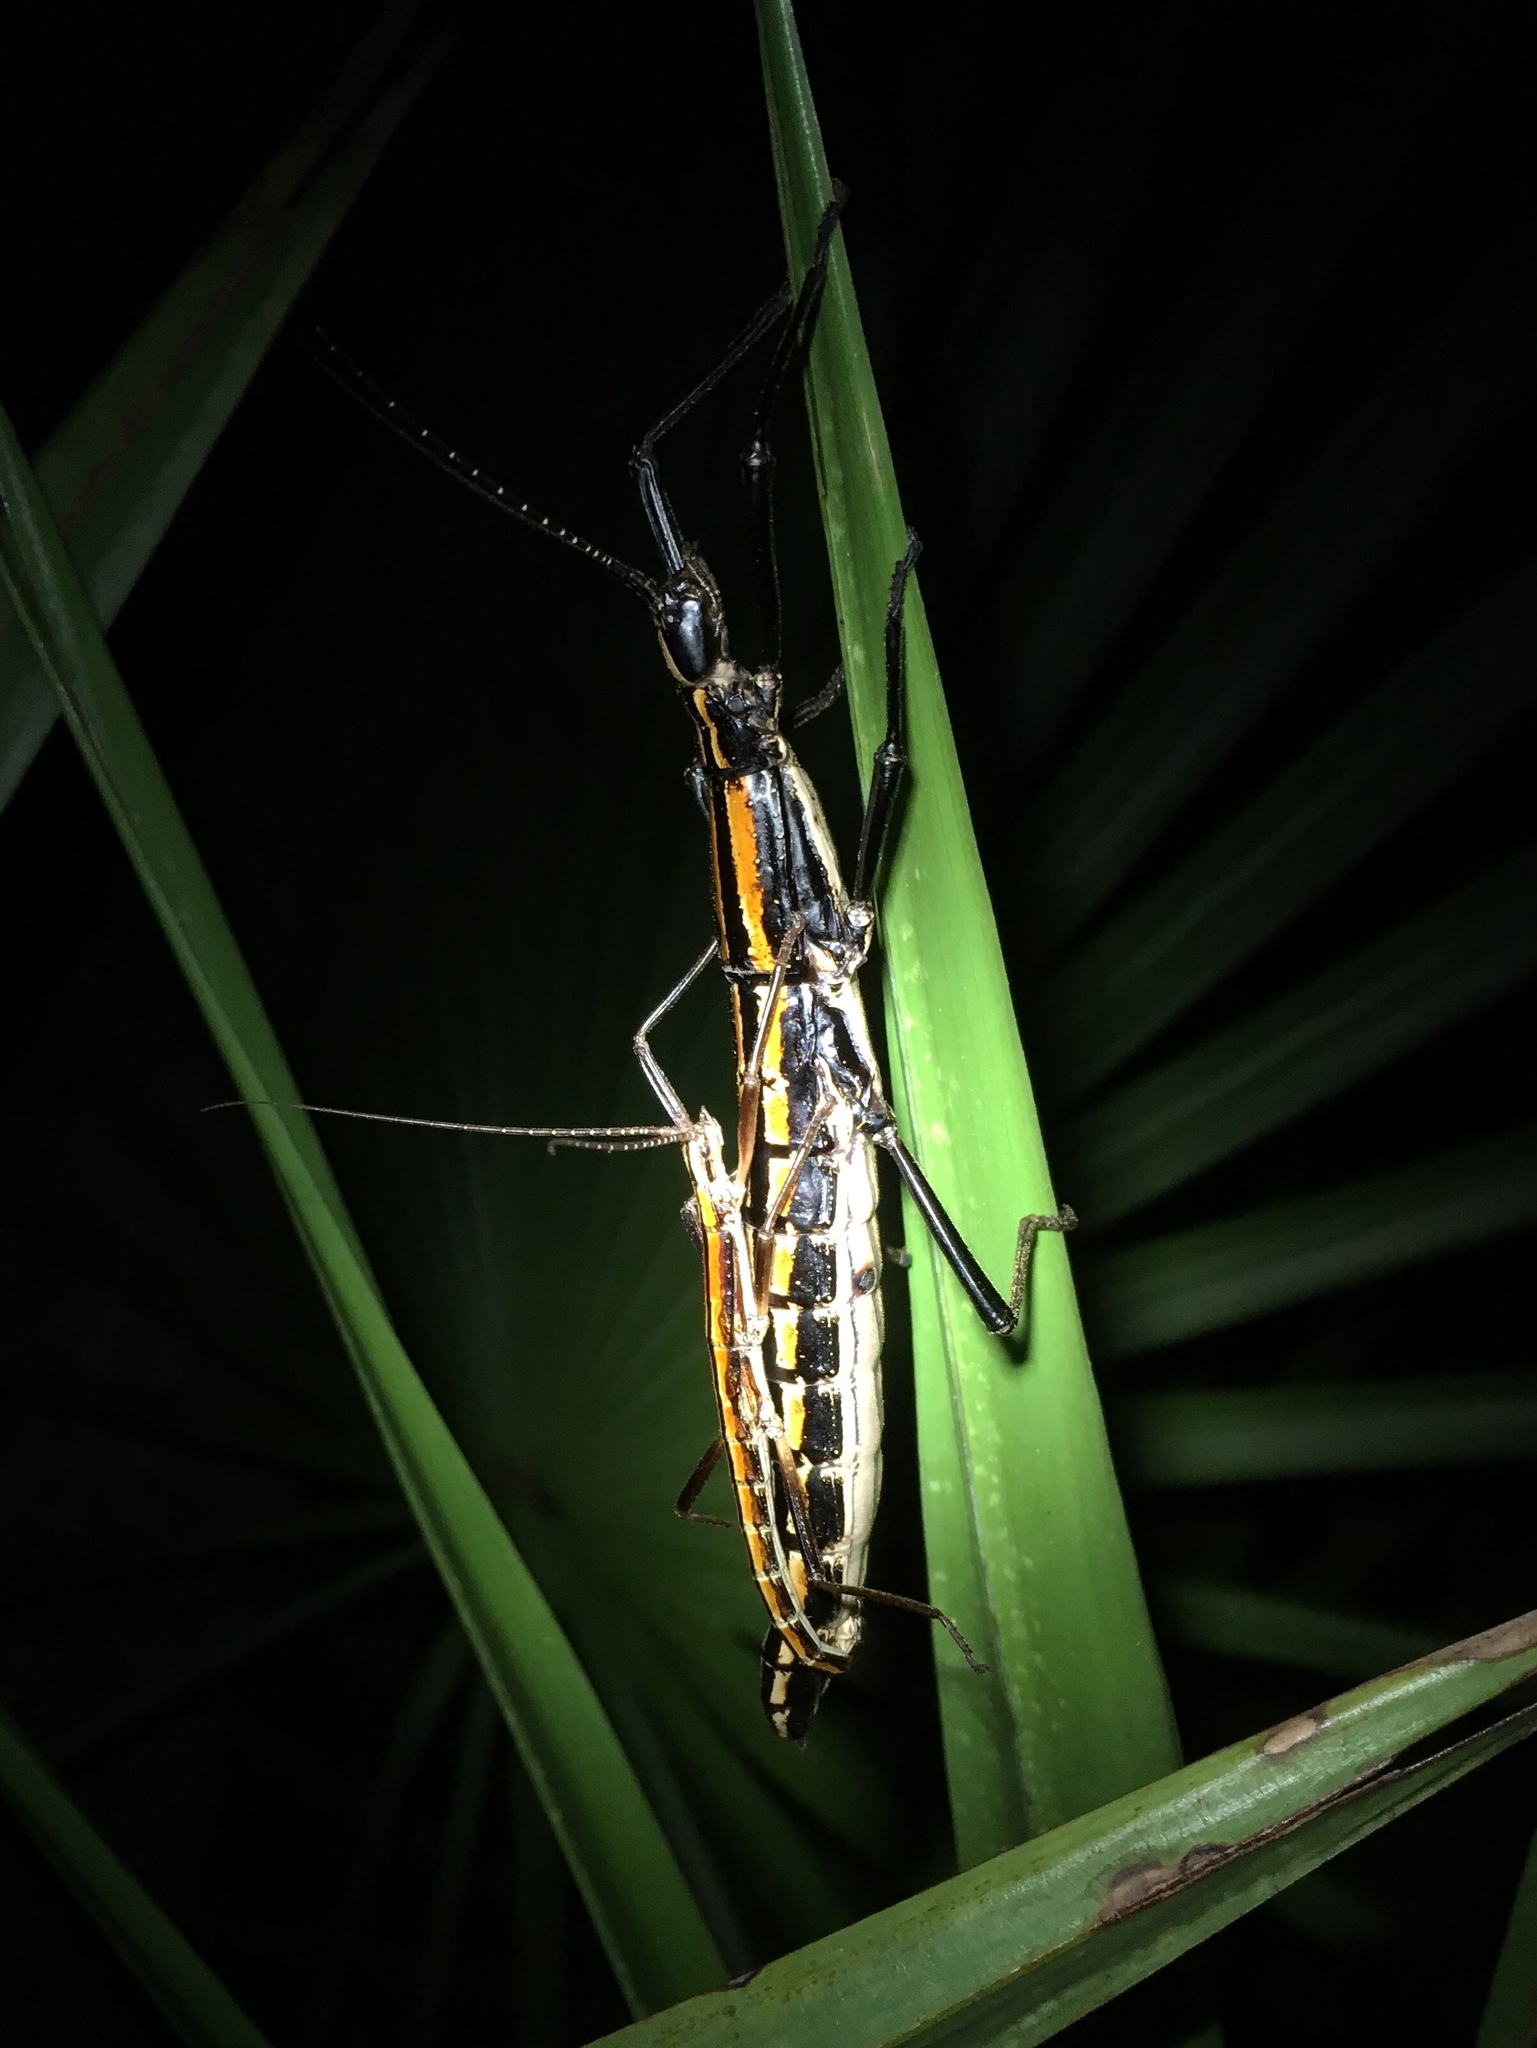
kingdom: Animalia
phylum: Arthropoda
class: Insecta
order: Phasmida
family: Pseudophasmatidae
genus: Anisomorpha
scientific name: Anisomorpha buprestoides
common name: Florida stick insect
